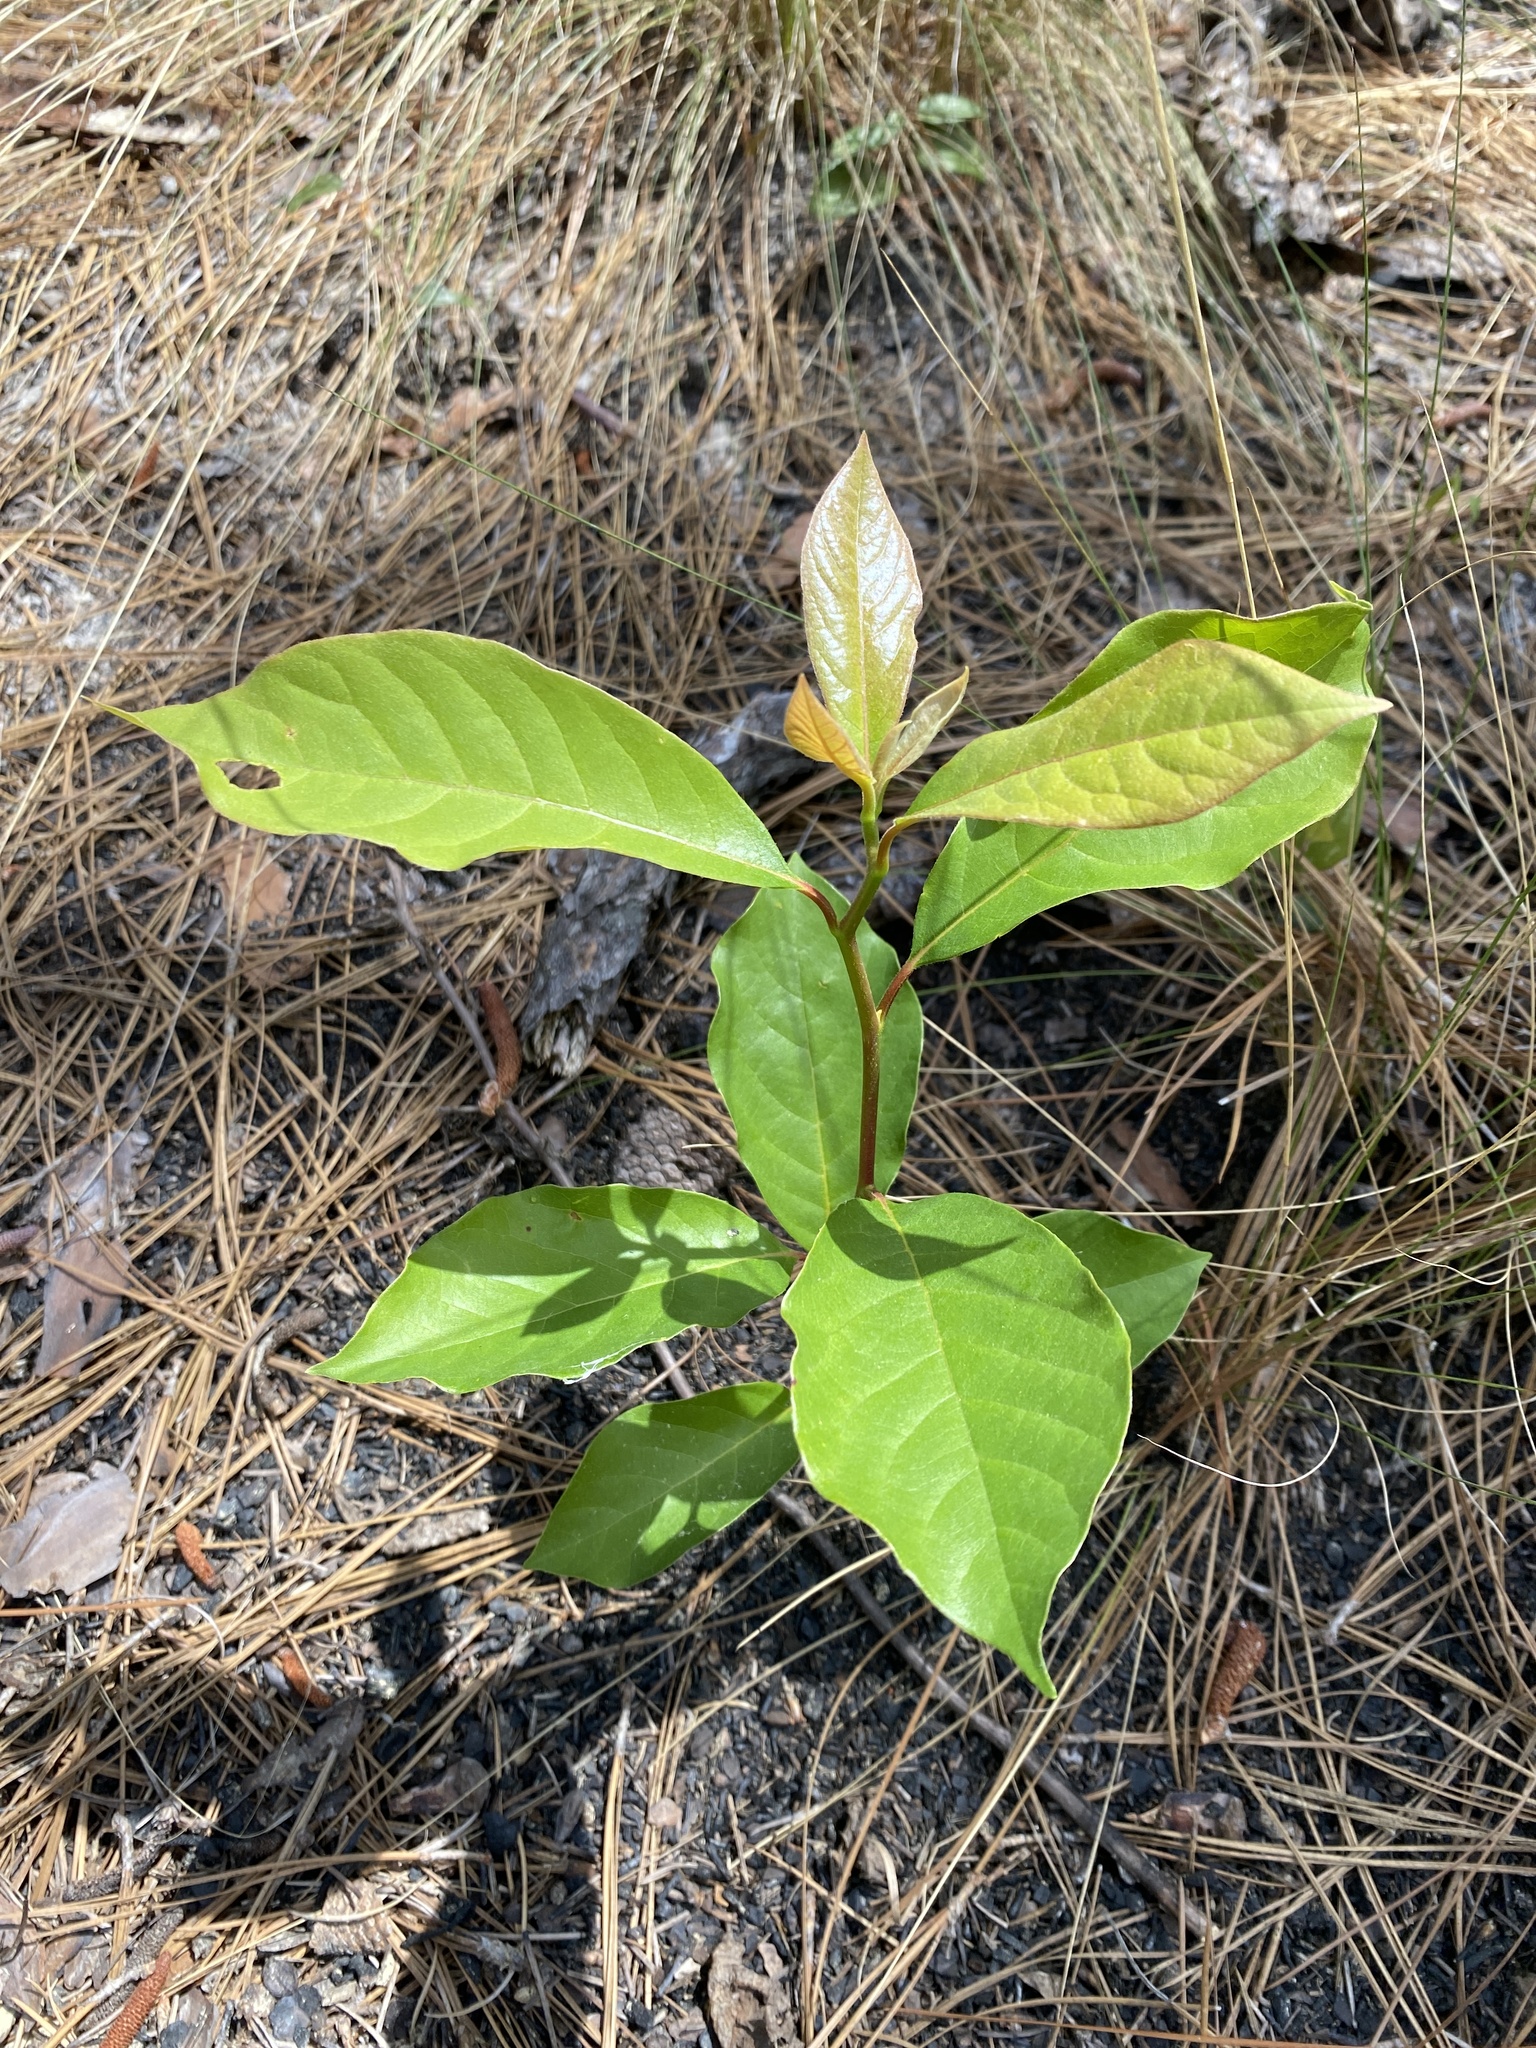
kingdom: Plantae
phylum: Tracheophyta
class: Magnoliopsida
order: Cornales
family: Nyssaceae
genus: Nyssa
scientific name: Nyssa sylvatica
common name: Black tupelo
